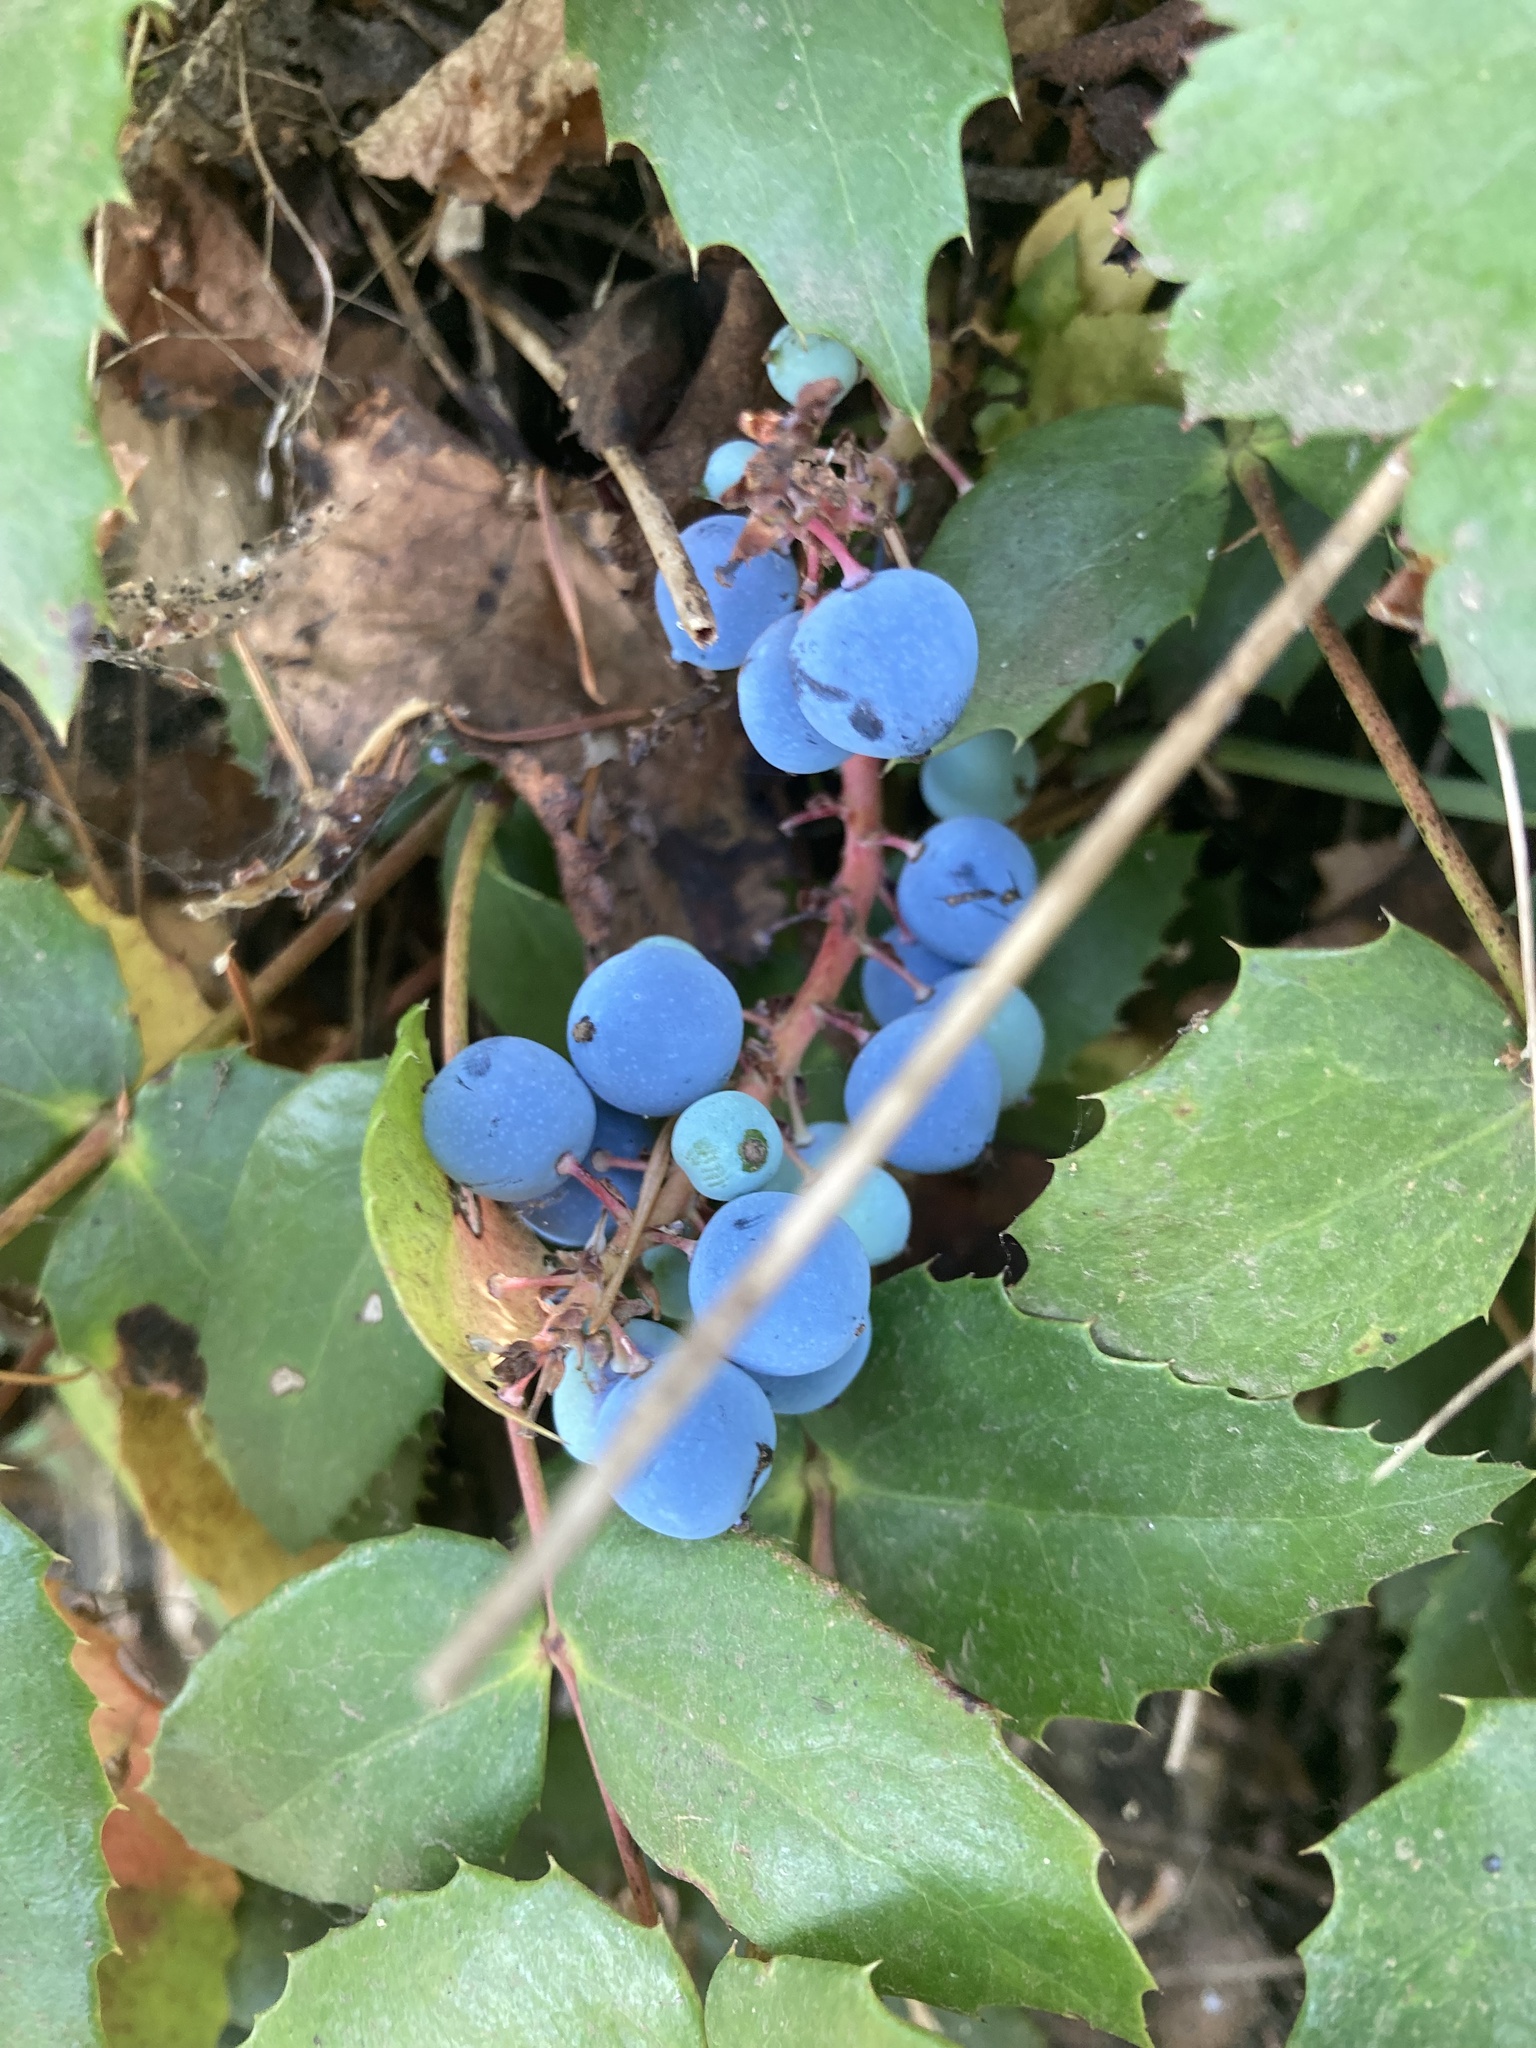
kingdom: Plantae
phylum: Tracheophyta
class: Magnoliopsida
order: Ranunculales
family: Berberidaceae
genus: Mahonia
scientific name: Mahonia nervosa
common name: Cascade oregon-grape
